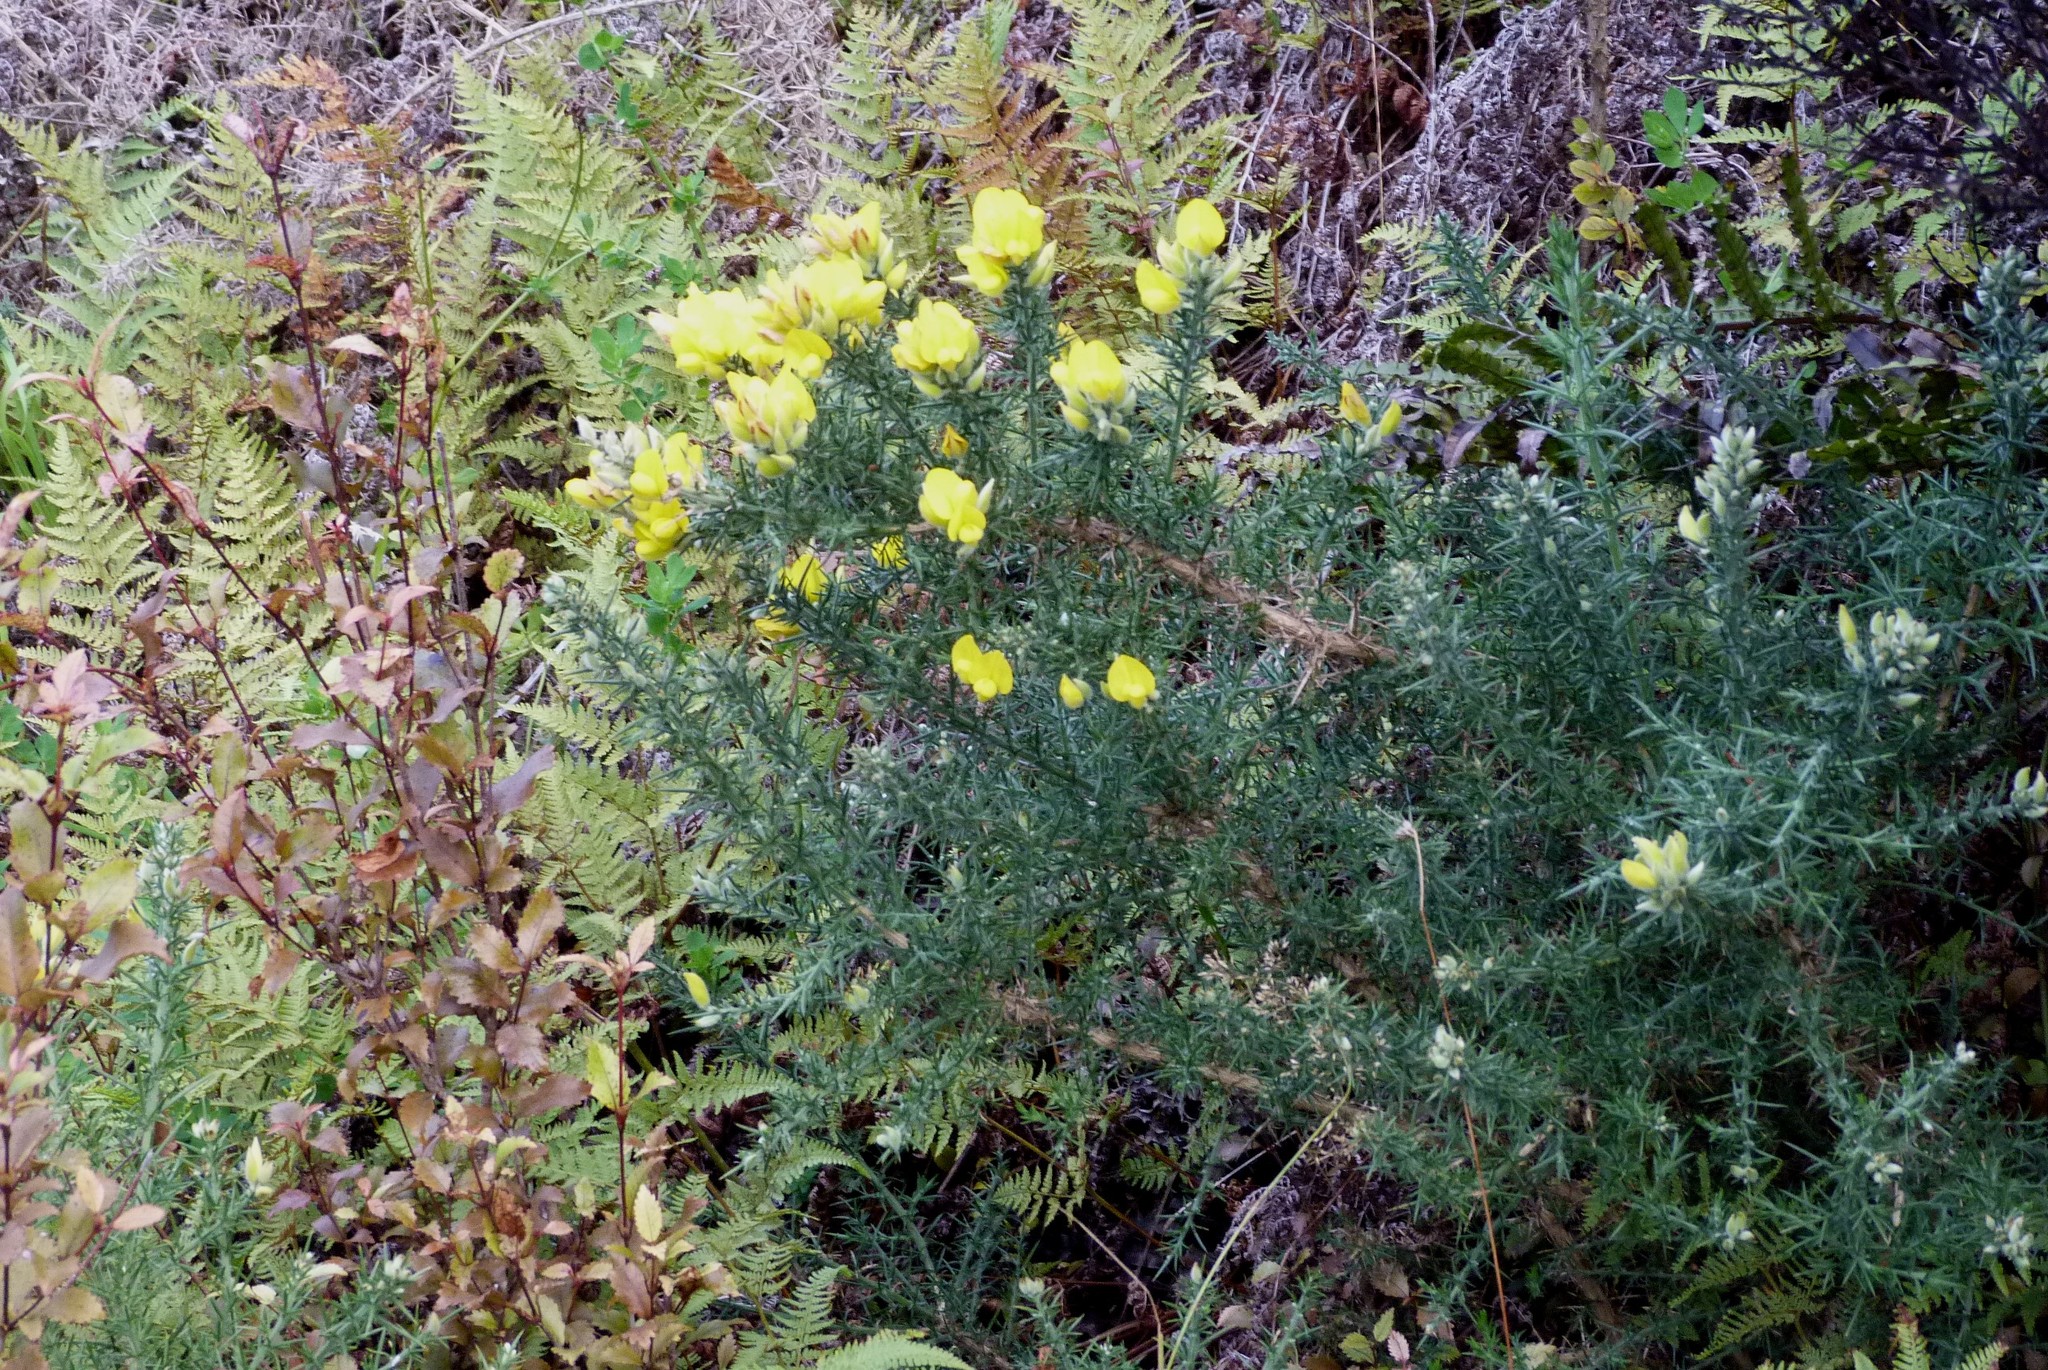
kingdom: Plantae
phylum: Tracheophyta
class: Magnoliopsida
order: Fabales
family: Fabaceae
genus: Ulex
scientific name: Ulex europaeus
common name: Common gorse
